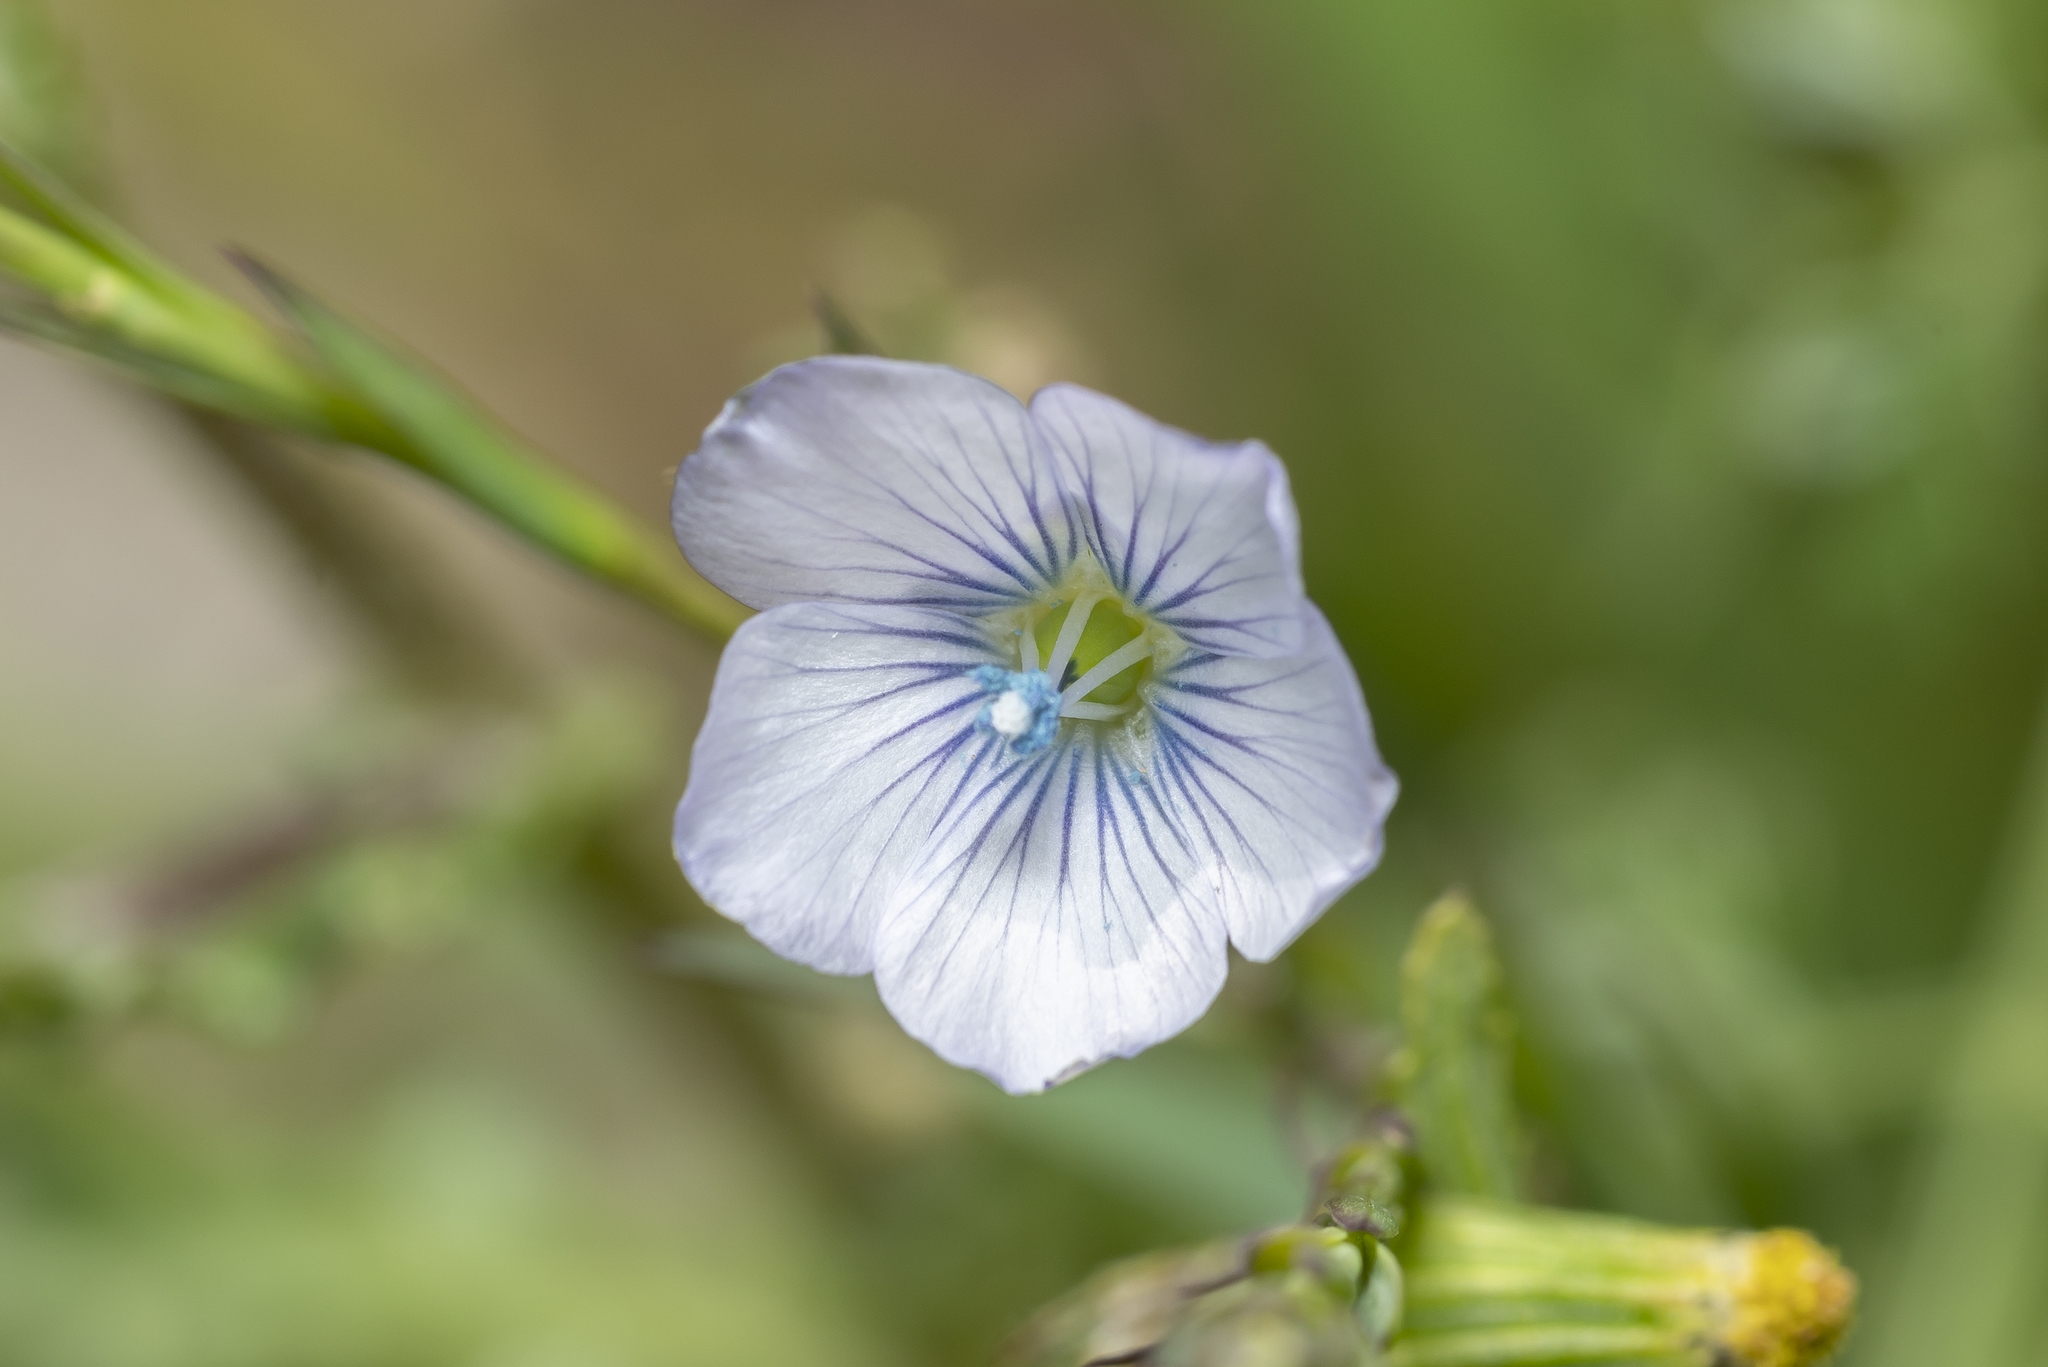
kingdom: Plantae
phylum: Tracheophyta
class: Magnoliopsida
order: Malpighiales
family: Linaceae
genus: Linum
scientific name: Linum bienne
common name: Pale flax
